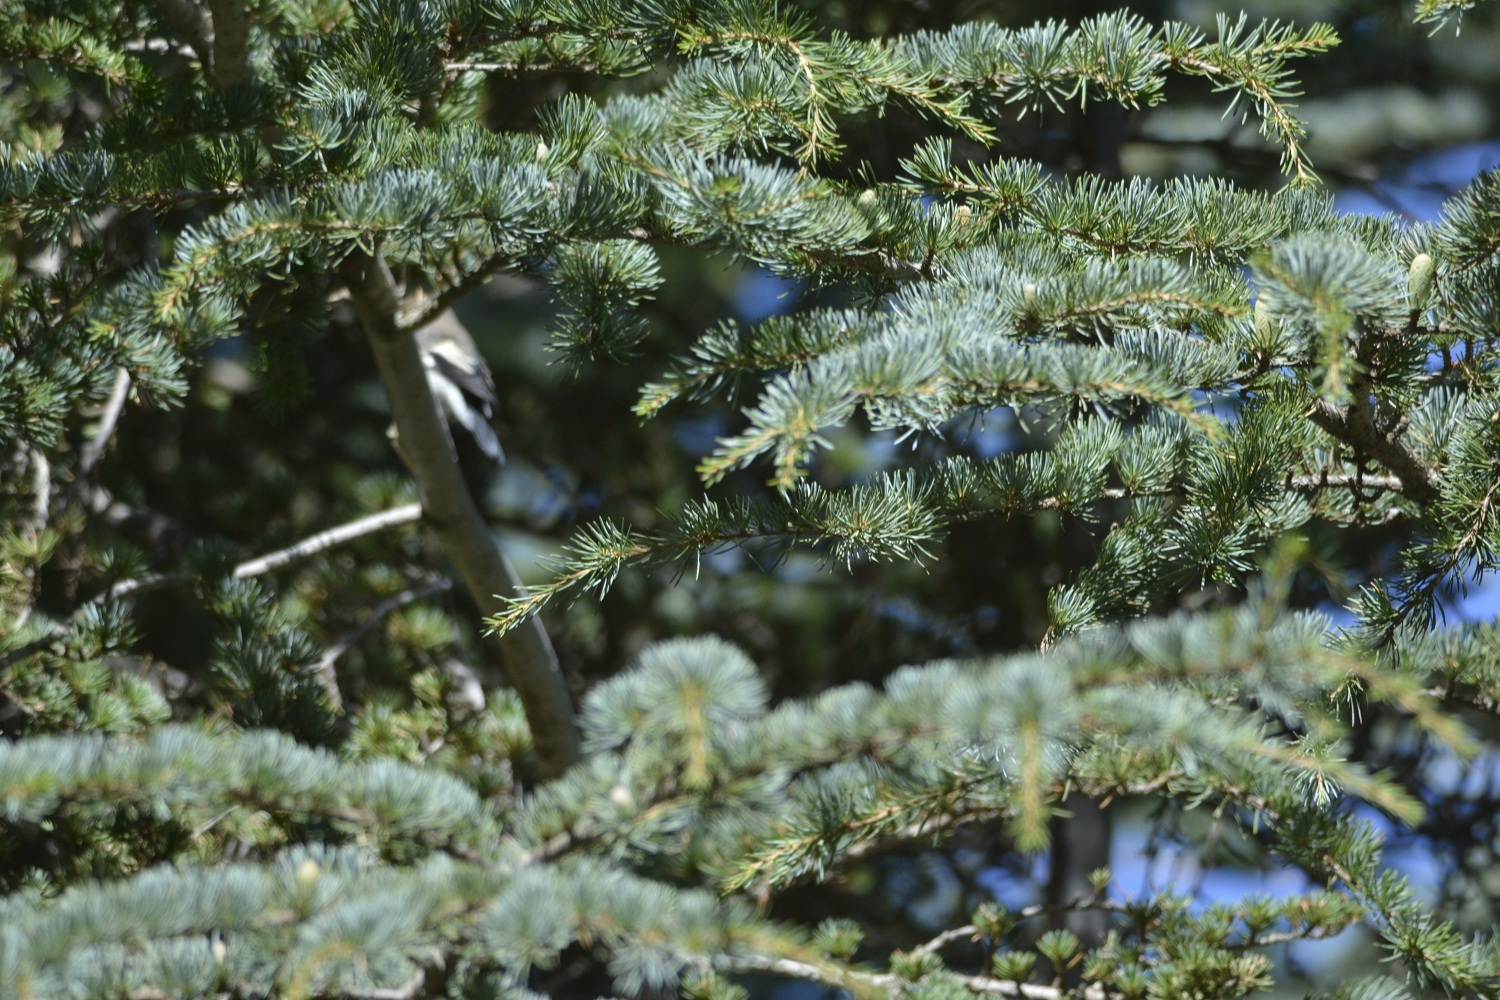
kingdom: Plantae
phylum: Tracheophyta
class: Pinopsida
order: Pinales
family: Pinaceae
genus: Cedrus
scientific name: Cedrus atlantica
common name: Atlas cedar
